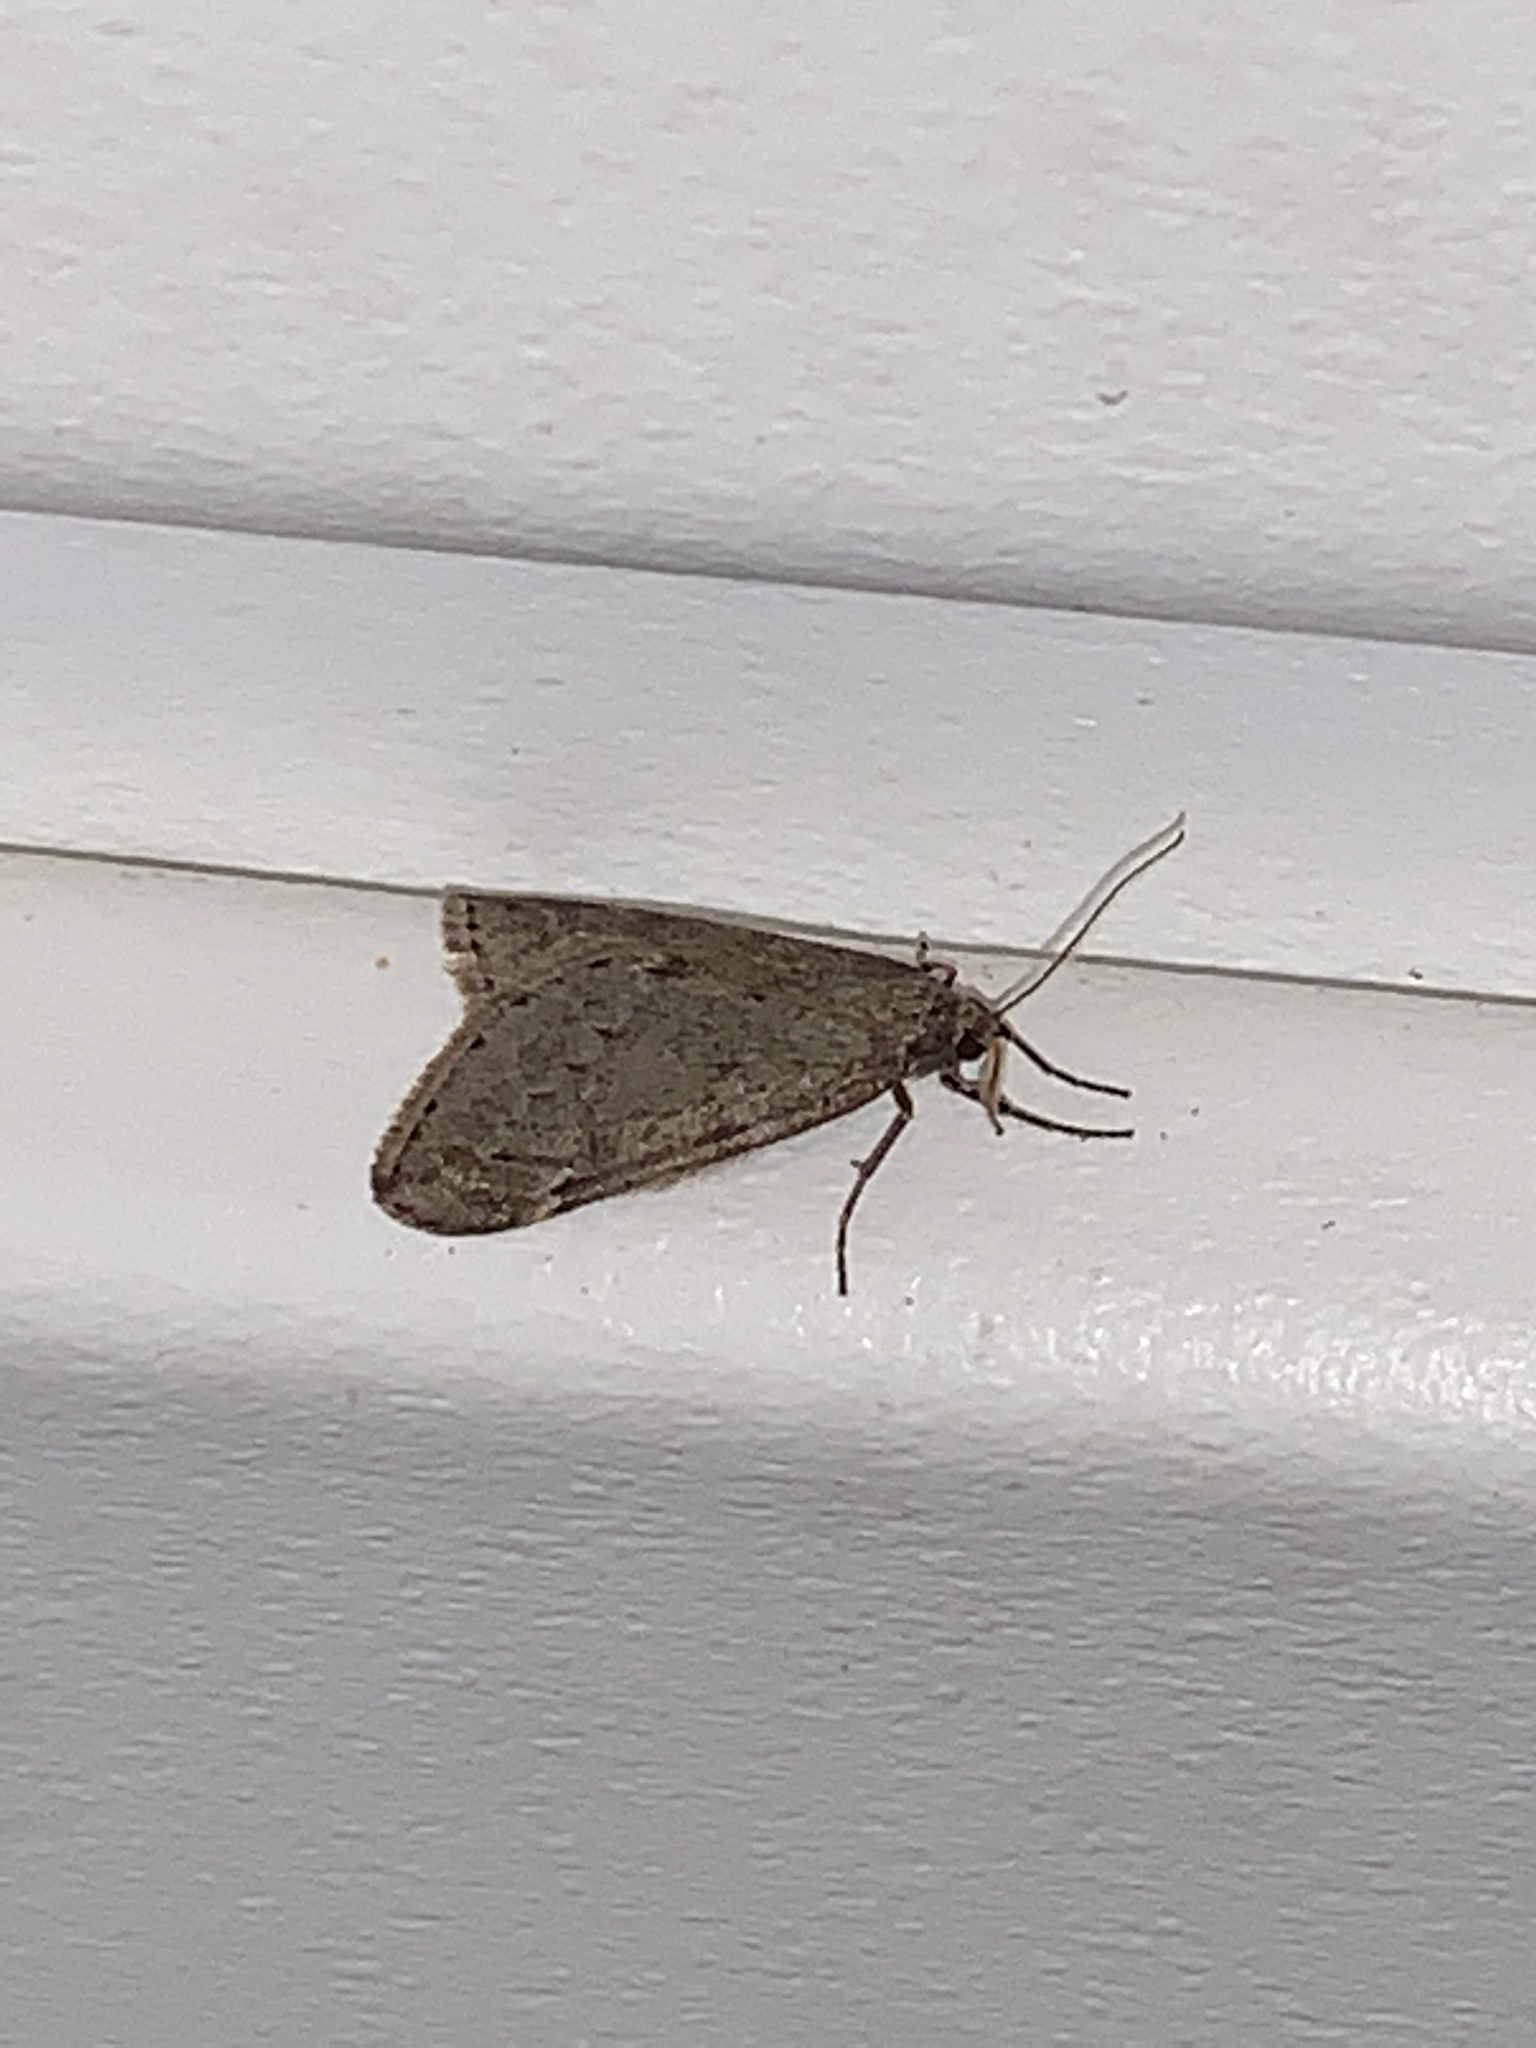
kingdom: Animalia
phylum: Arthropoda
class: Insecta
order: Lepidoptera
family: Geometridae
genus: Alsophila
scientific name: Alsophila pometaria
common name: Fall cankerworm
